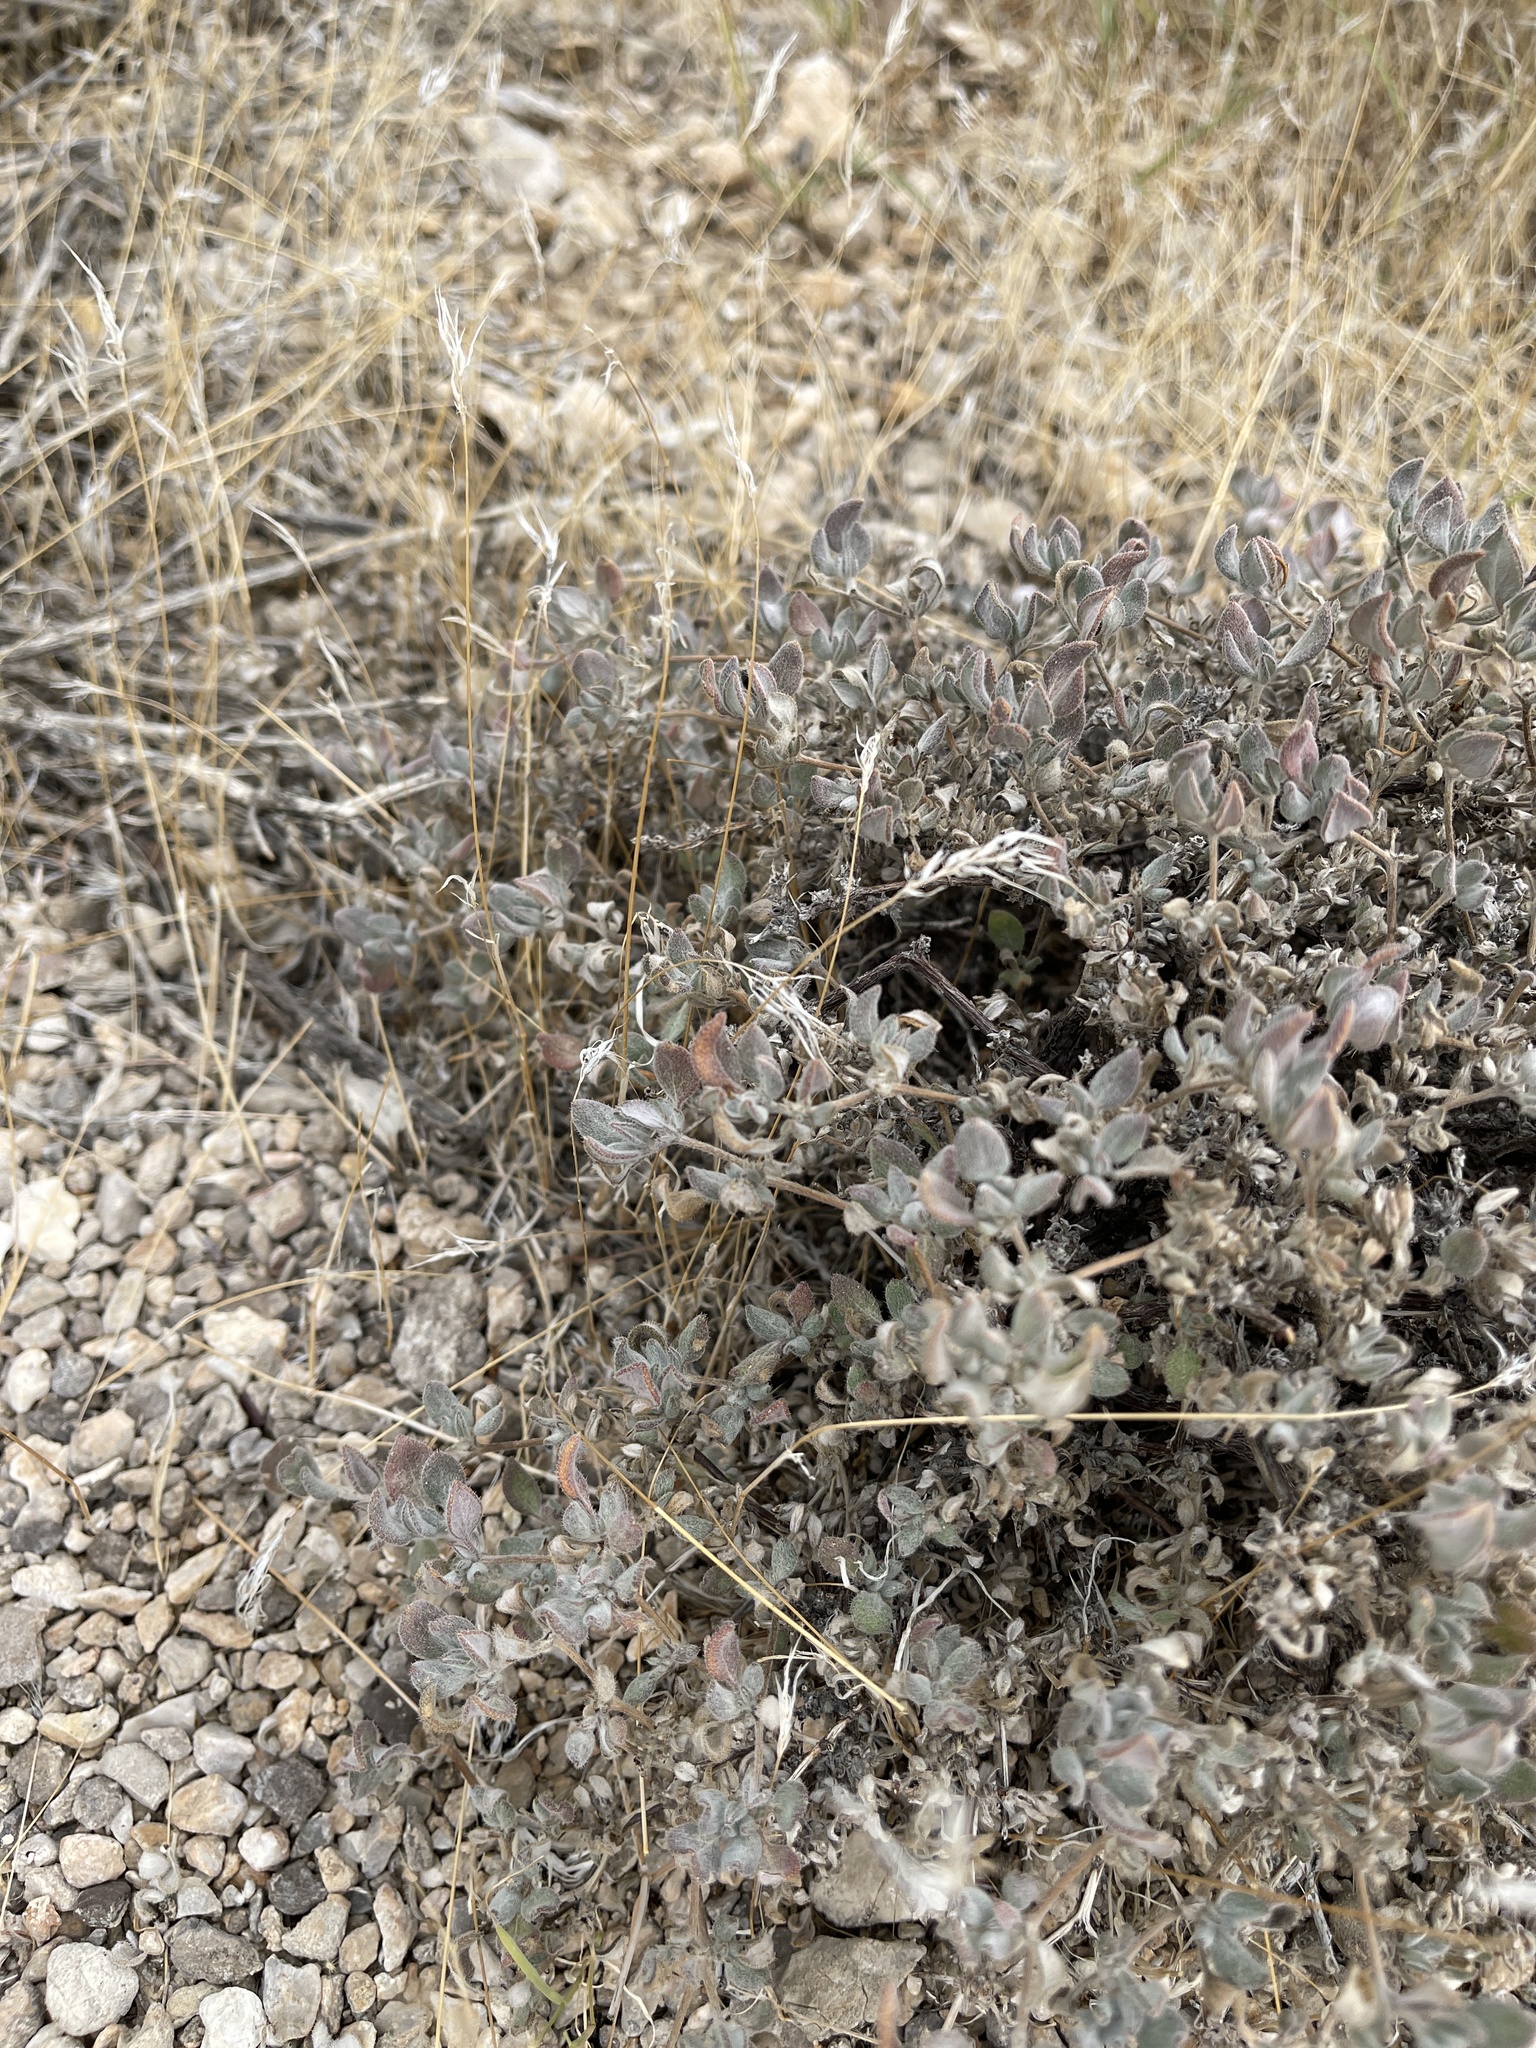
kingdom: Plantae
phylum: Tracheophyta
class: Magnoliopsida
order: Boraginales
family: Ehretiaceae
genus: Tiquilia
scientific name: Tiquilia canescens
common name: Hairy tiquilia
